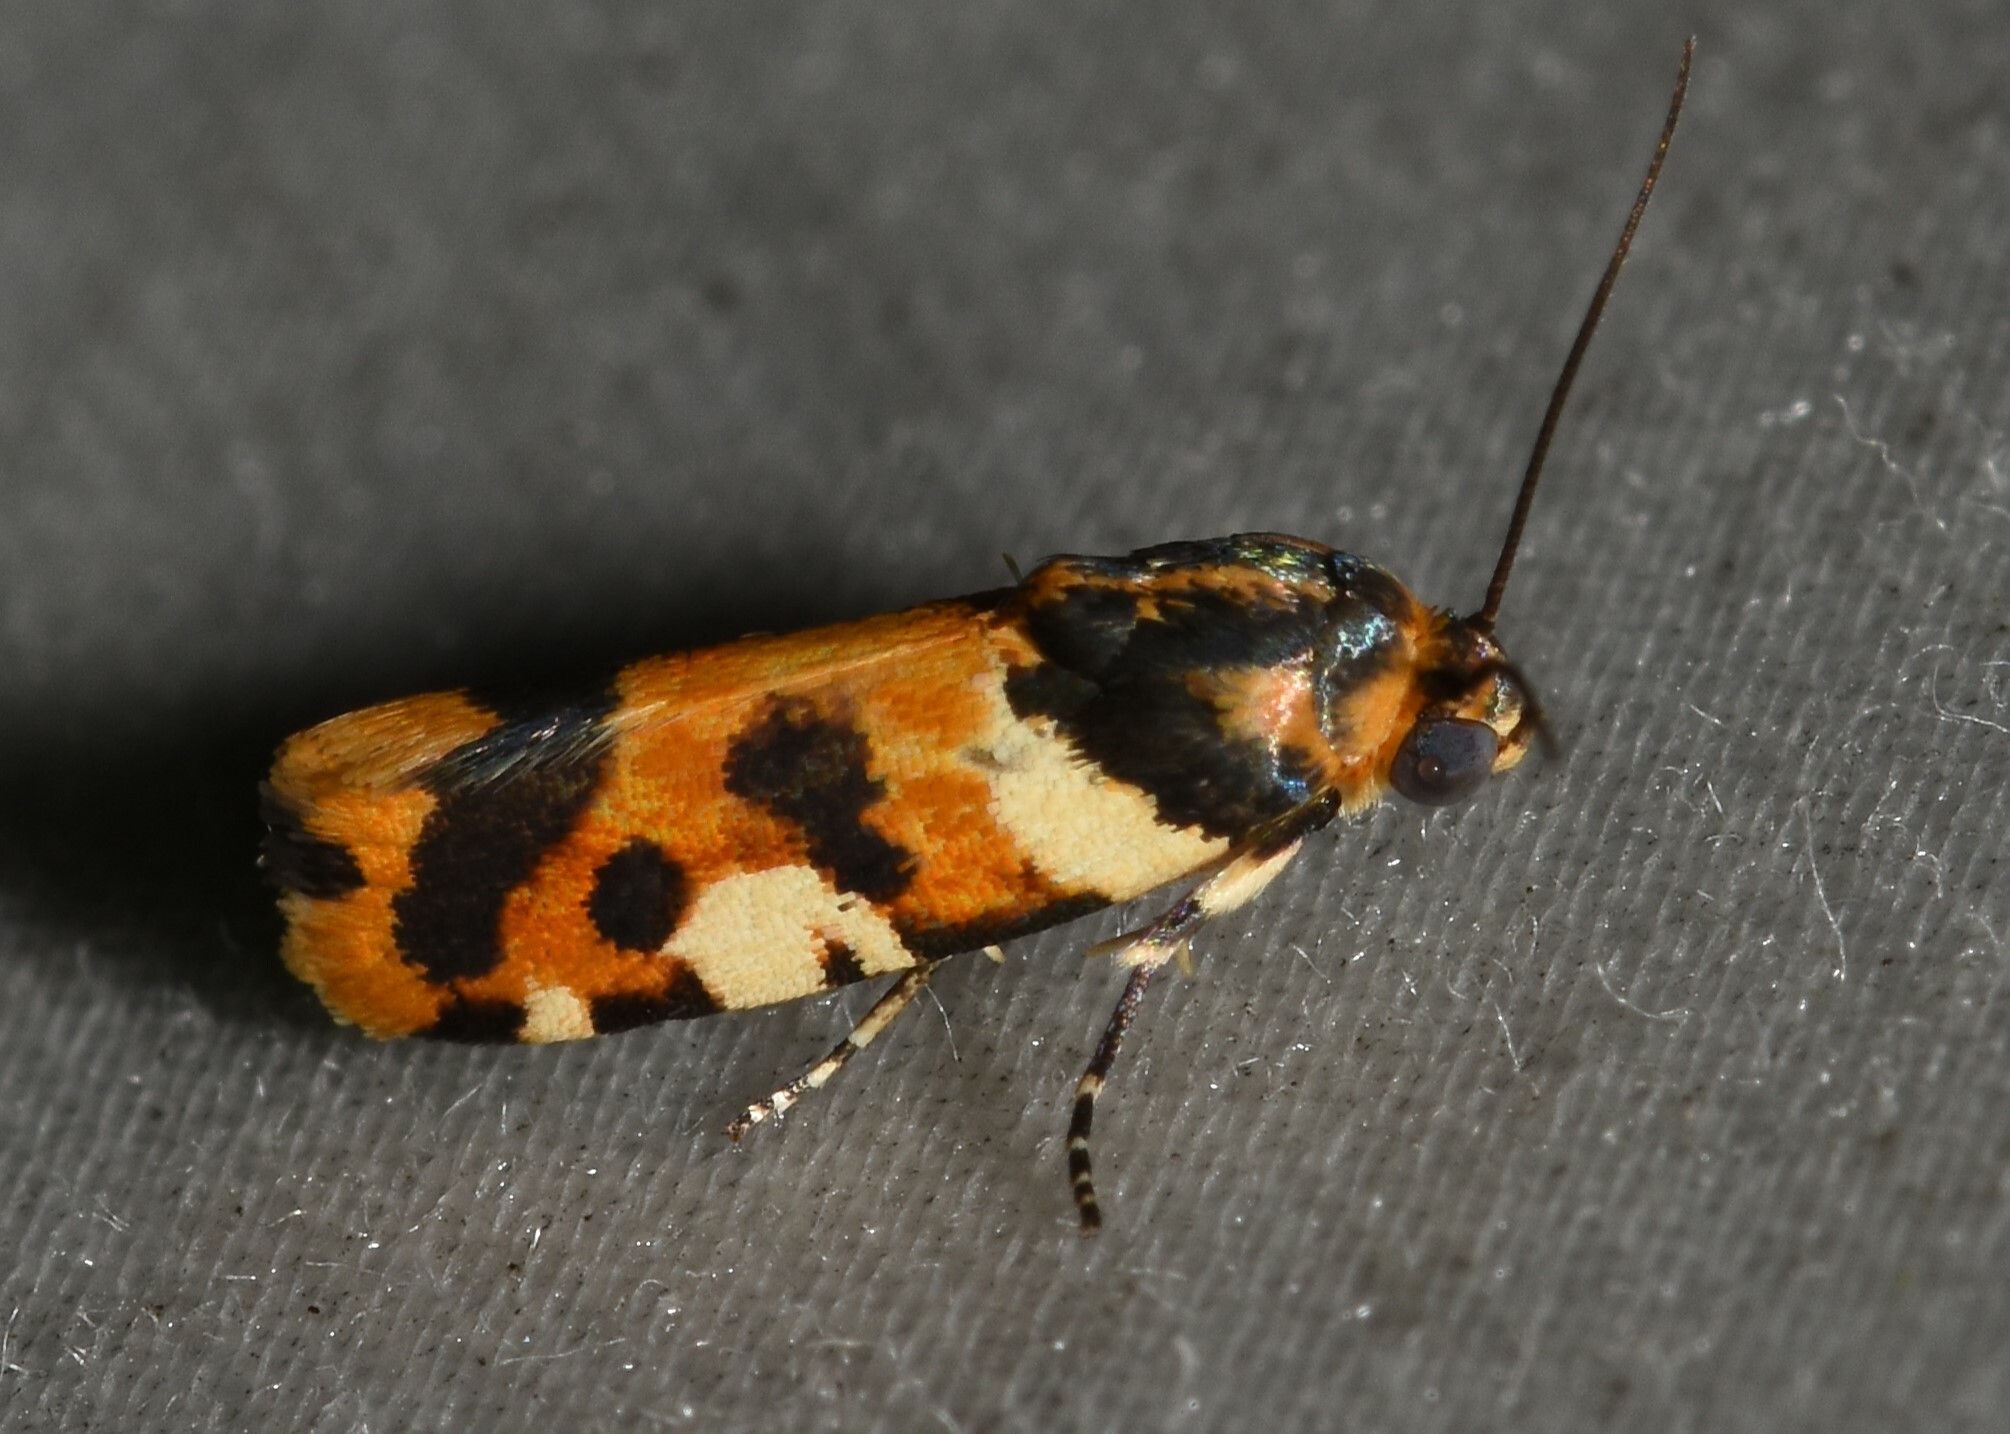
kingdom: Animalia
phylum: Arthropoda
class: Insecta
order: Lepidoptera
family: Noctuidae
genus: Acontia
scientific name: Acontia dama
